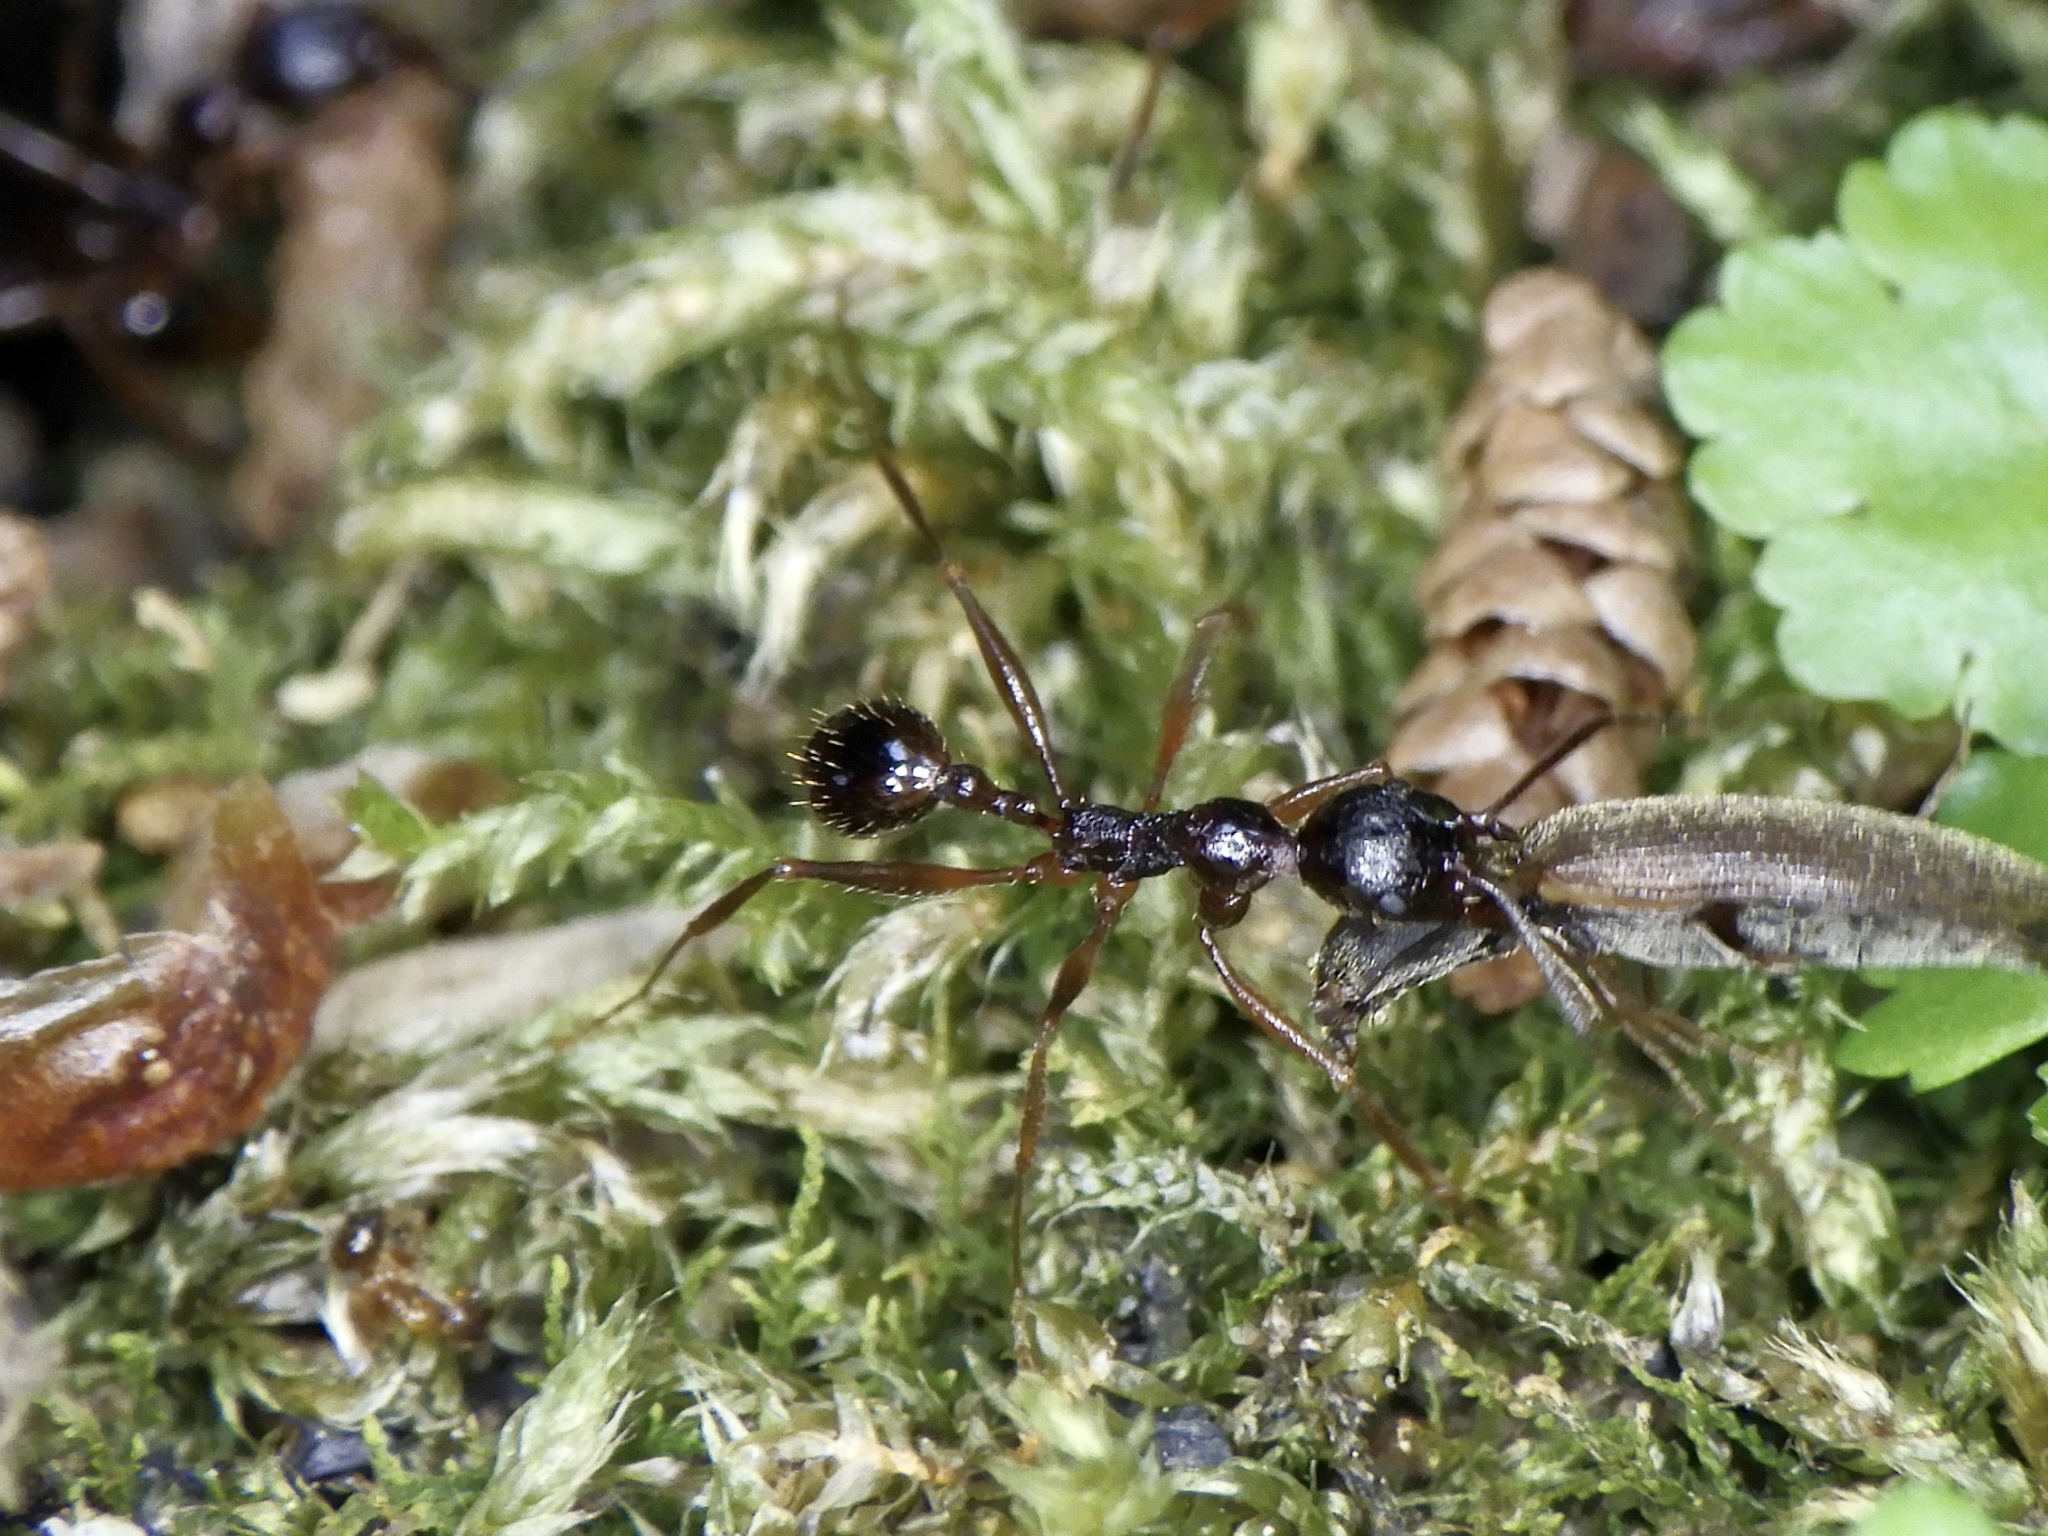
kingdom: Animalia
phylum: Arthropoda
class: Insecta
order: Hymenoptera
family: Formicidae
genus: Aphaenogaster
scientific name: Aphaenogaster famelica
